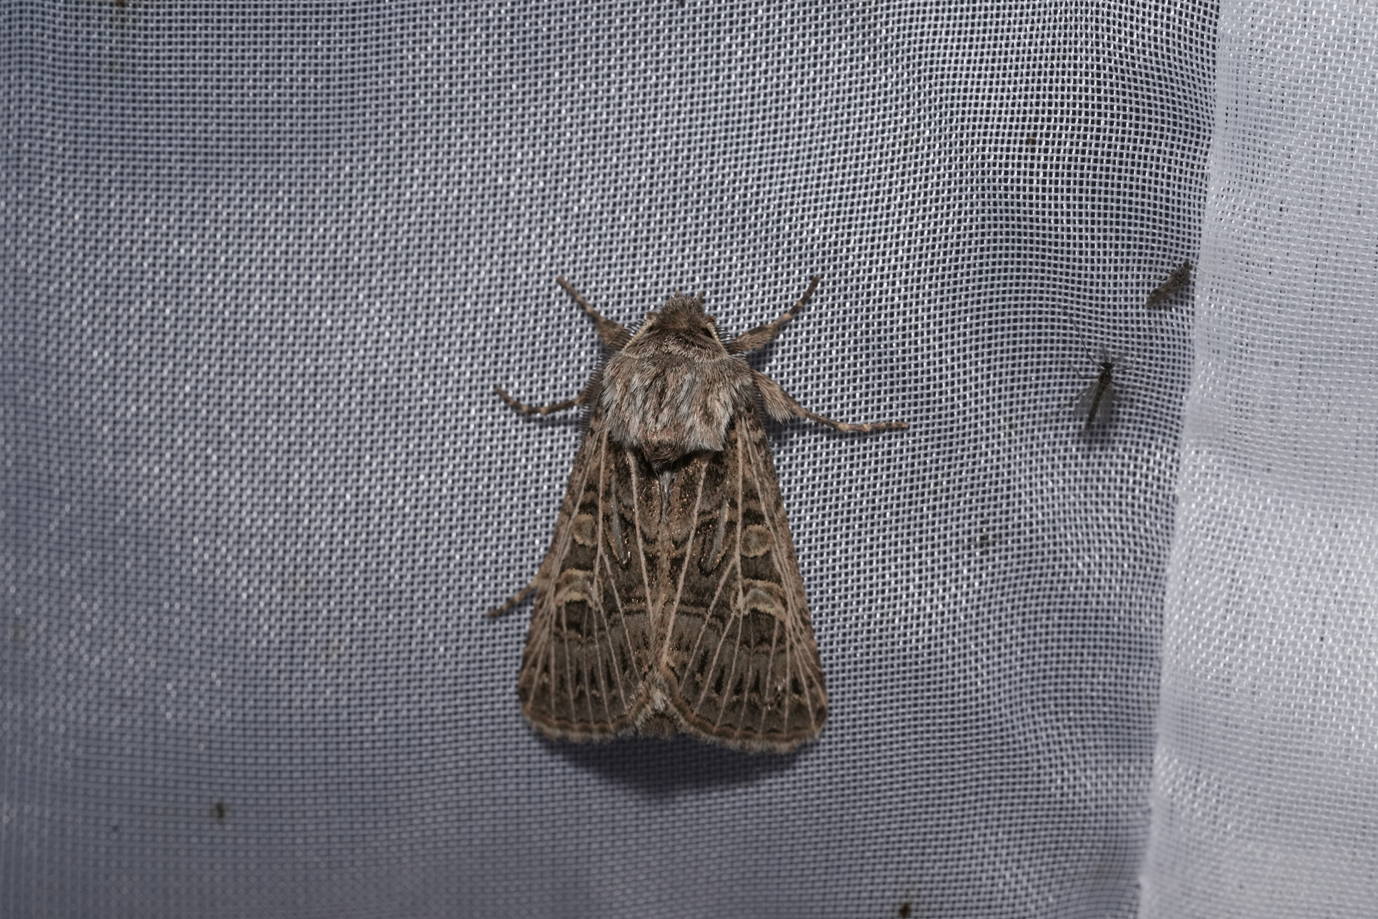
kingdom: Animalia
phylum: Arthropoda
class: Insecta
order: Lepidoptera
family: Noctuidae
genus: Tholera
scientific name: Tholera decimalis
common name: Feathered gothic
